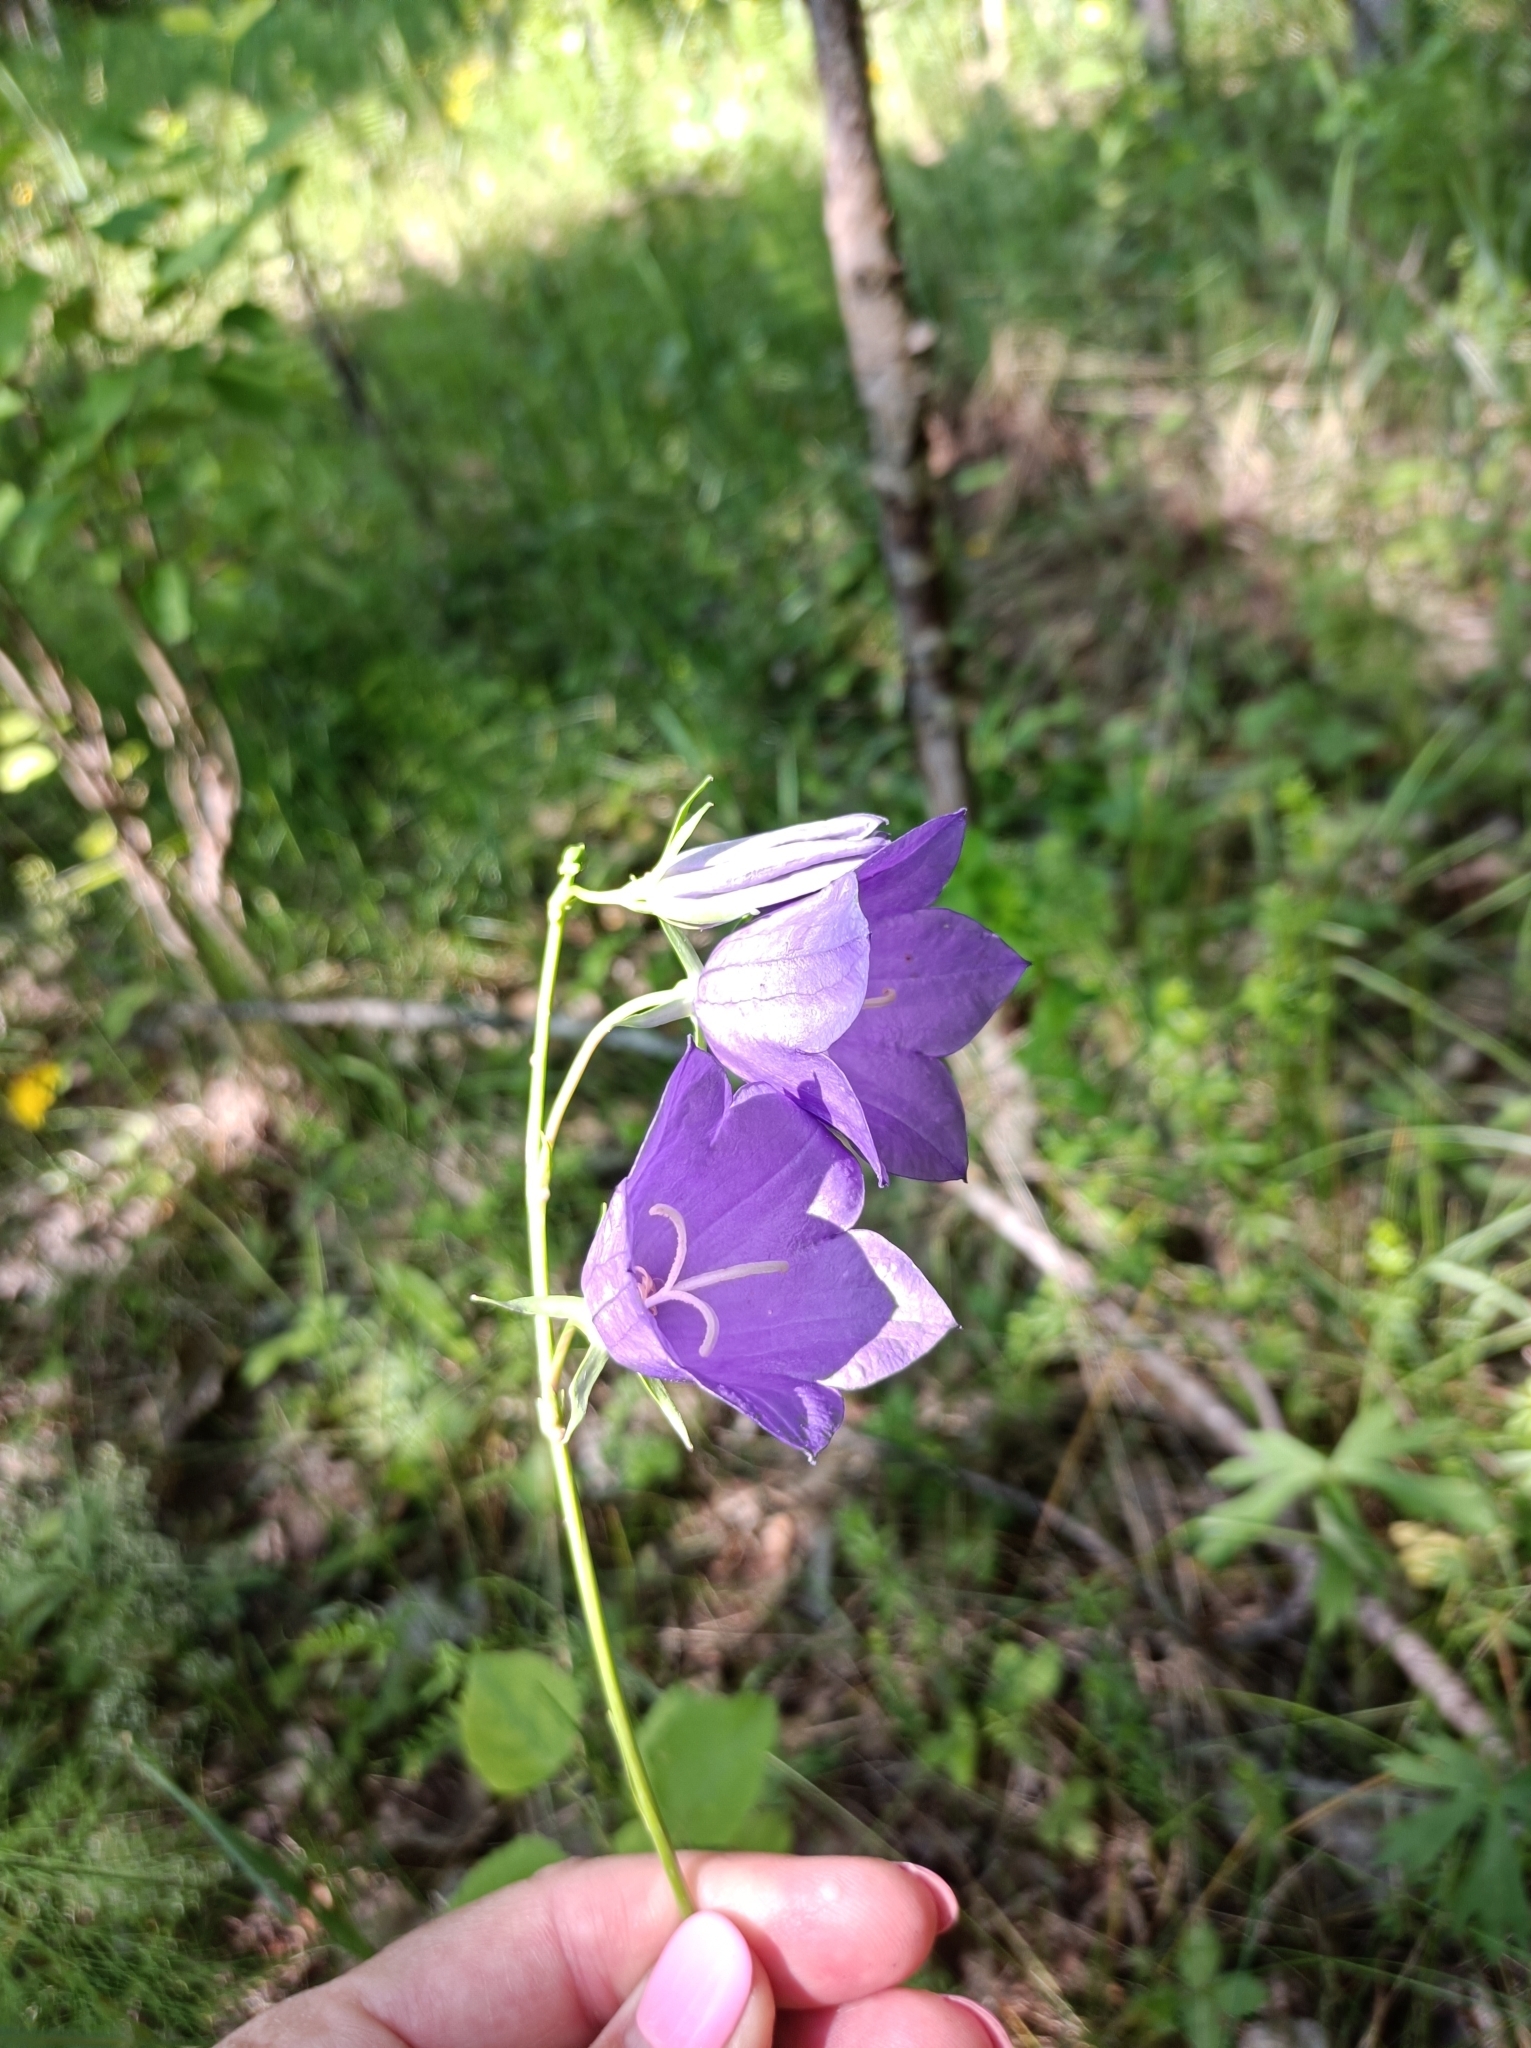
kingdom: Plantae
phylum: Tracheophyta
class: Magnoliopsida
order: Asterales
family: Campanulaceae
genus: Campanula
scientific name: Campanula persicifolia
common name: Peach-leaved bellflower
